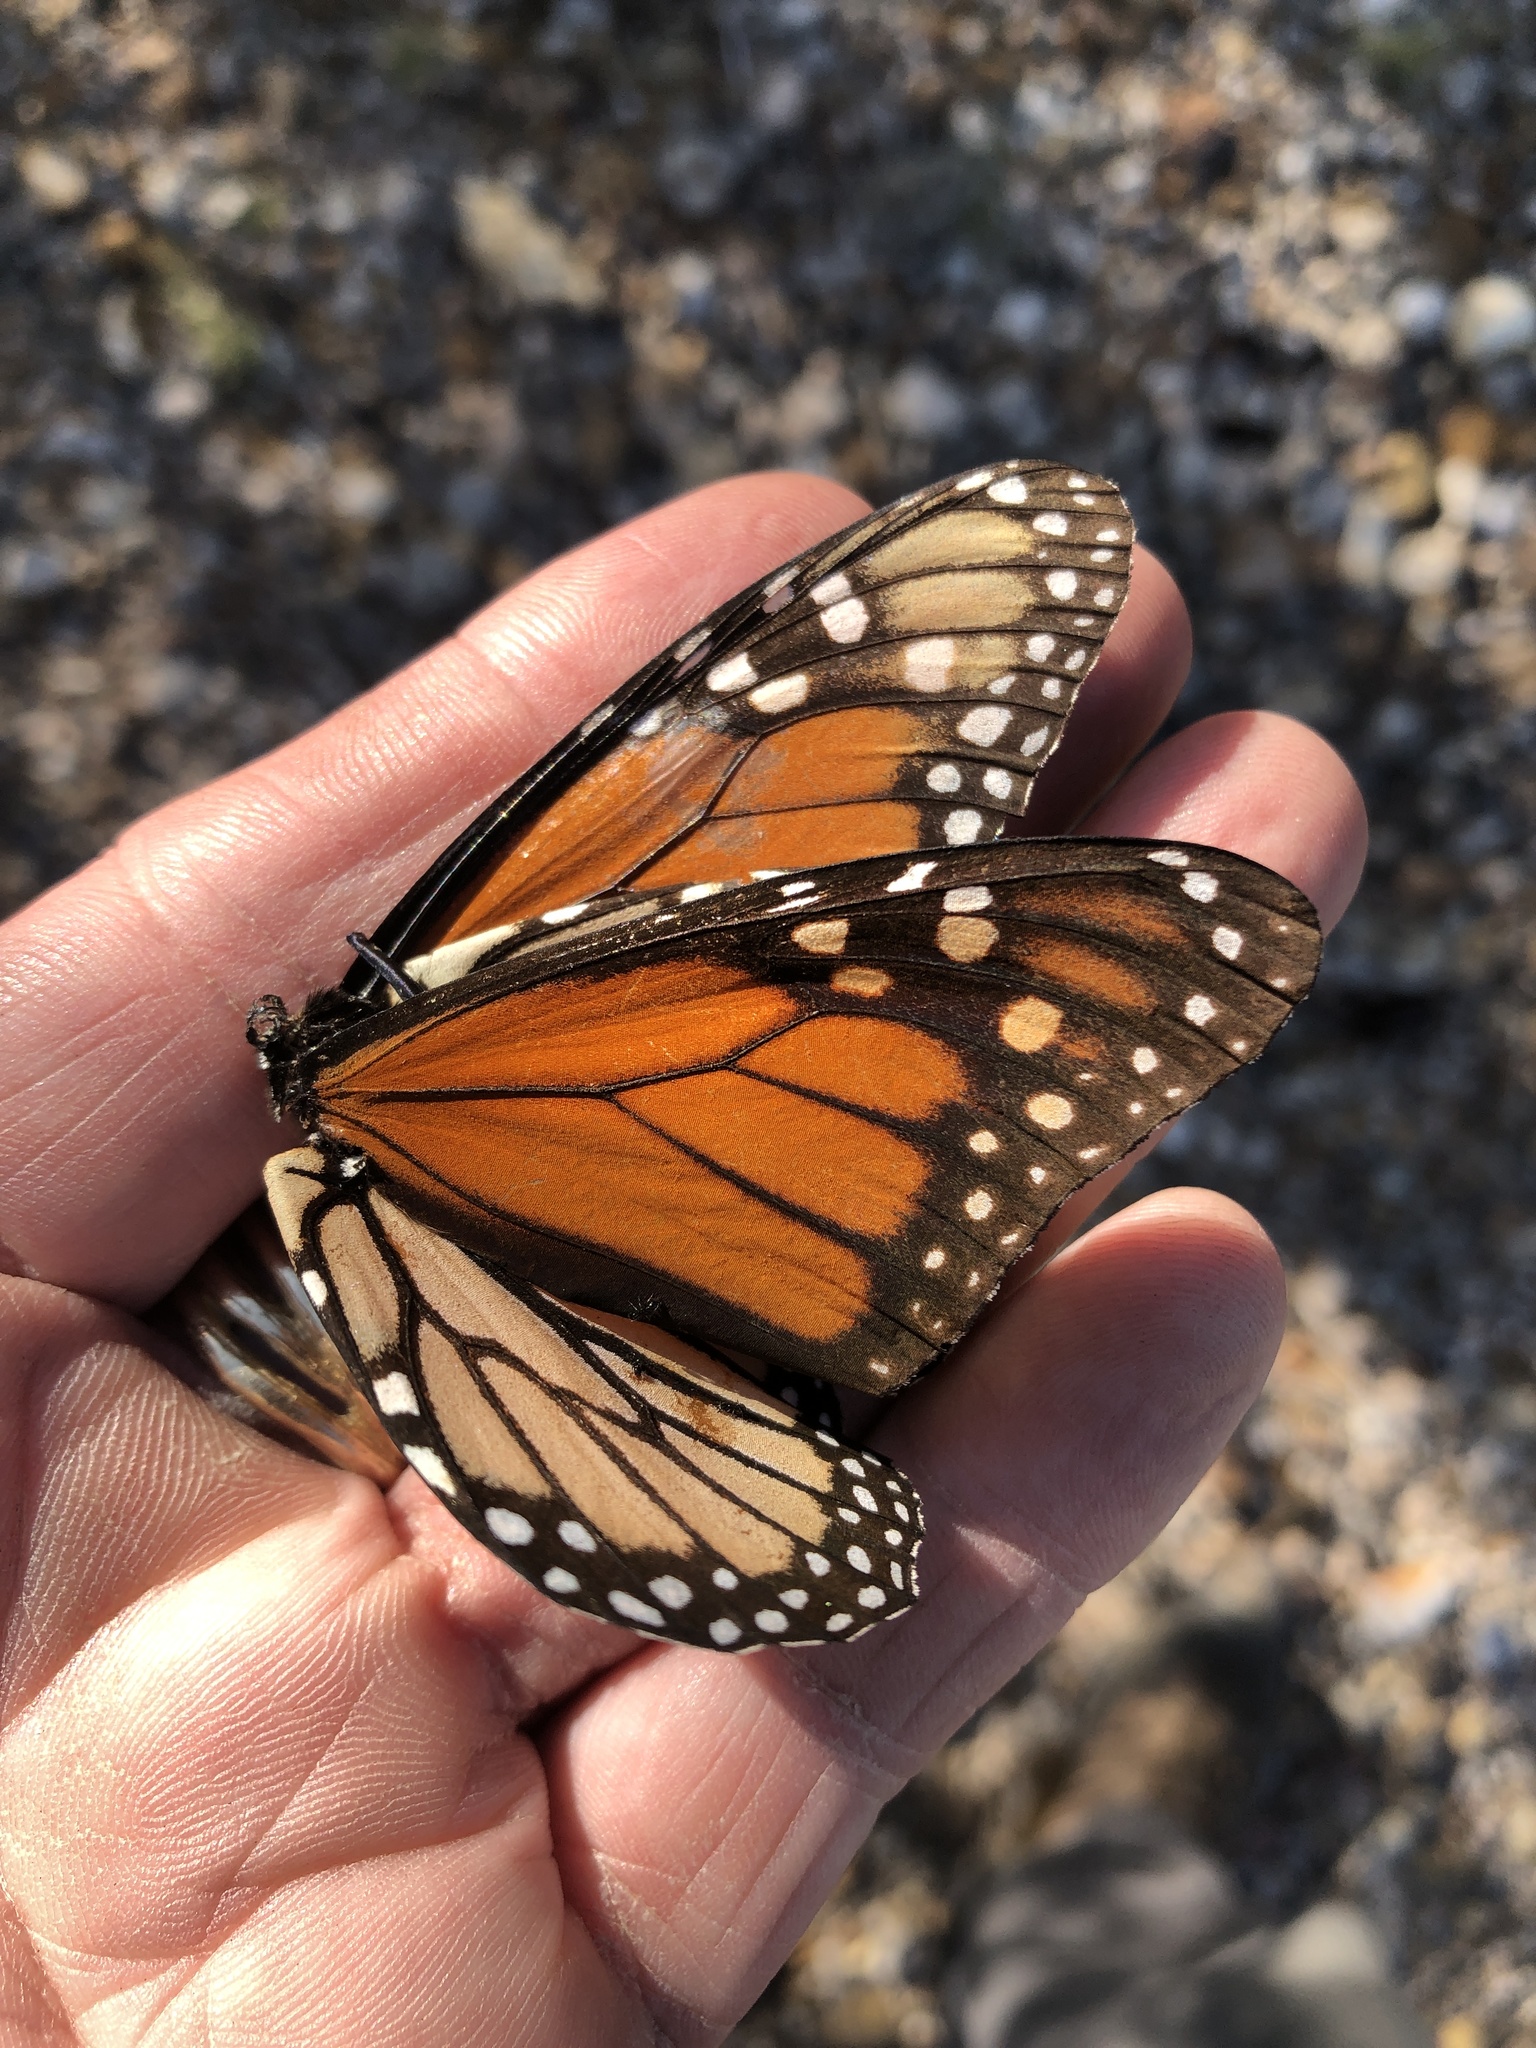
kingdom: Animalia
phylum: Arthropoda
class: Insecta
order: Lepidoptera
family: Nymphalidae
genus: Danaus
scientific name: Danaus plexippus
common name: Monarch
